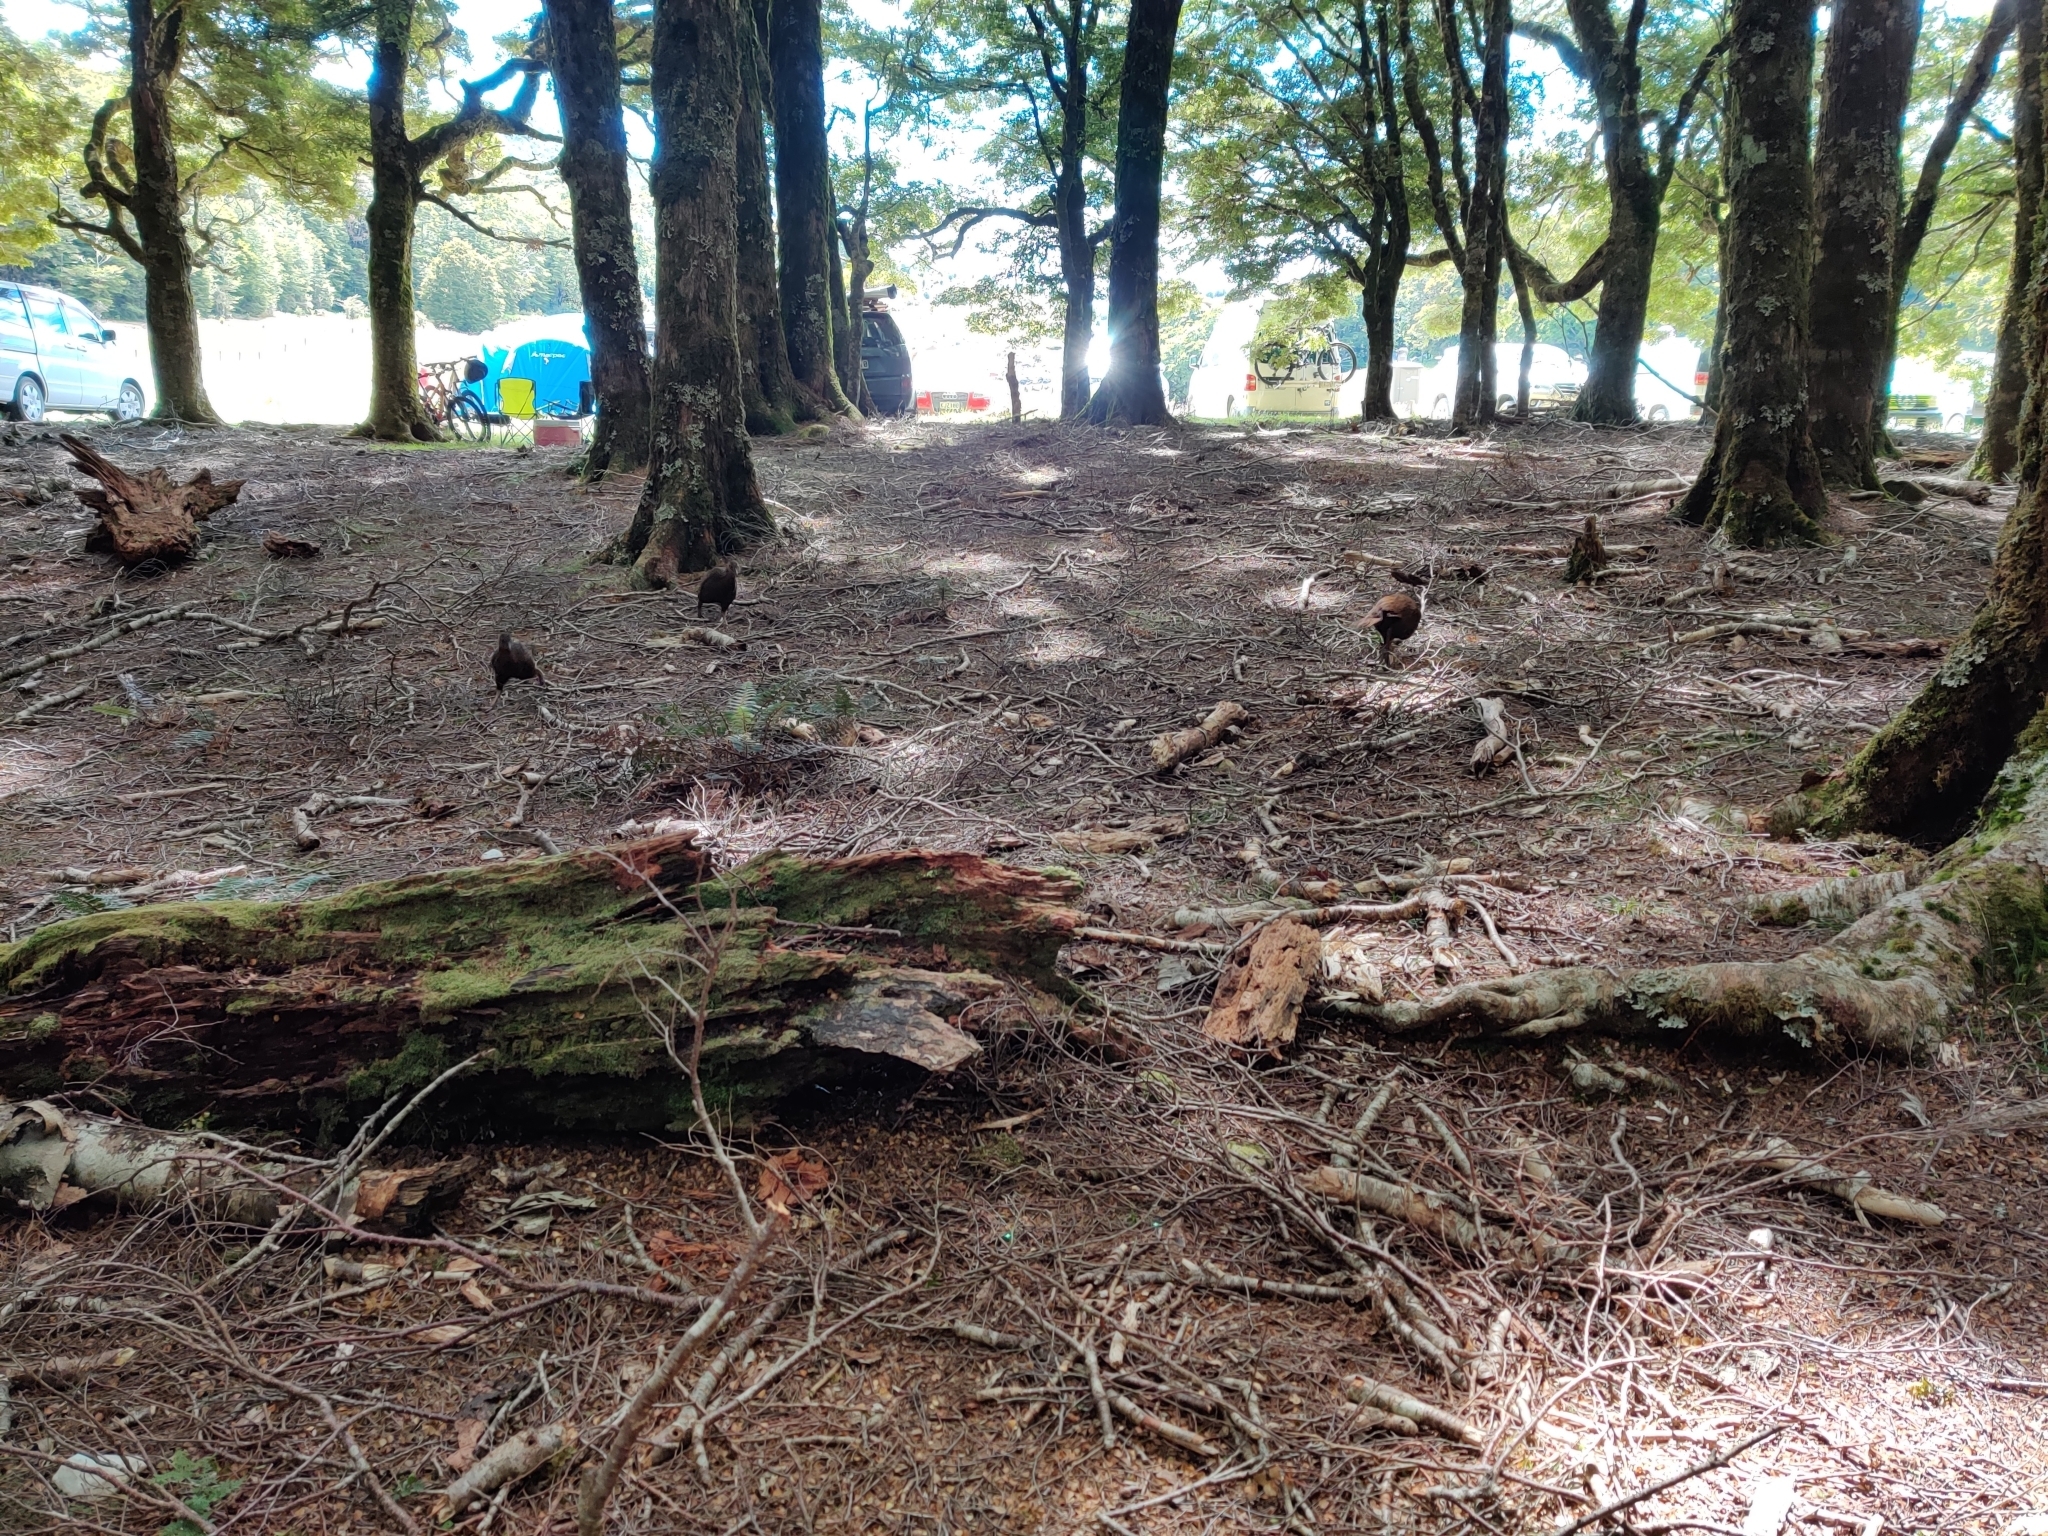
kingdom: Animalia
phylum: Chordata
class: Aves
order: Gruiformes
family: Rallidae
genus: Gallirallus
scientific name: Gallirallus australis
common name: Weka
